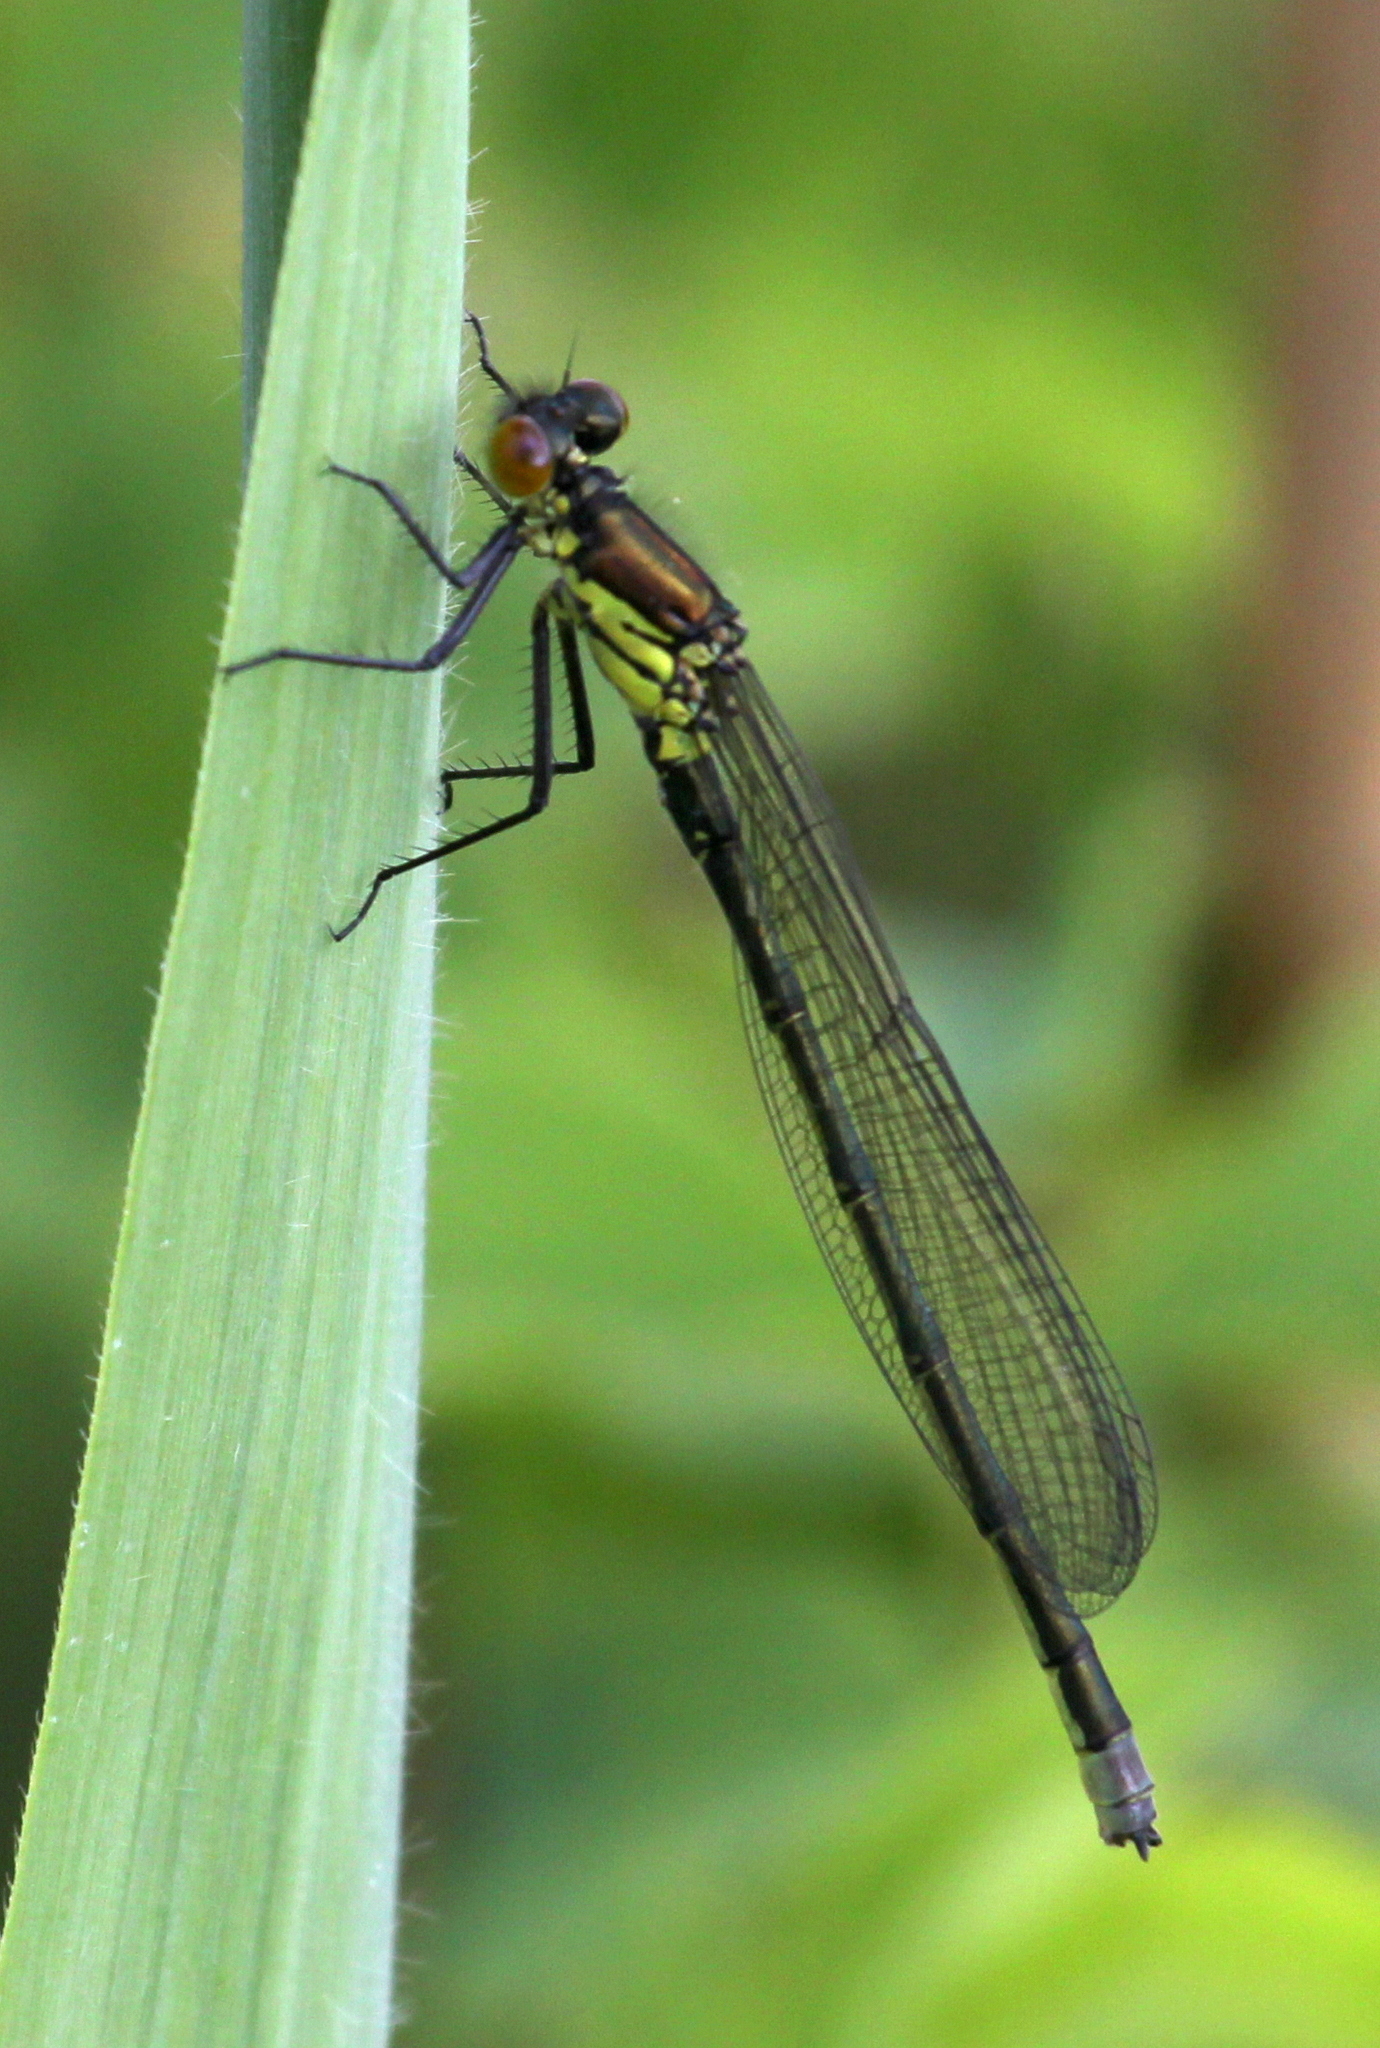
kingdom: Animalia
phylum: Arthropoda
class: Insecta
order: Odonata
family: Coenagrionidae
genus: Erythromma
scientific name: Erythromma najas
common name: Red-eyed damselfly
